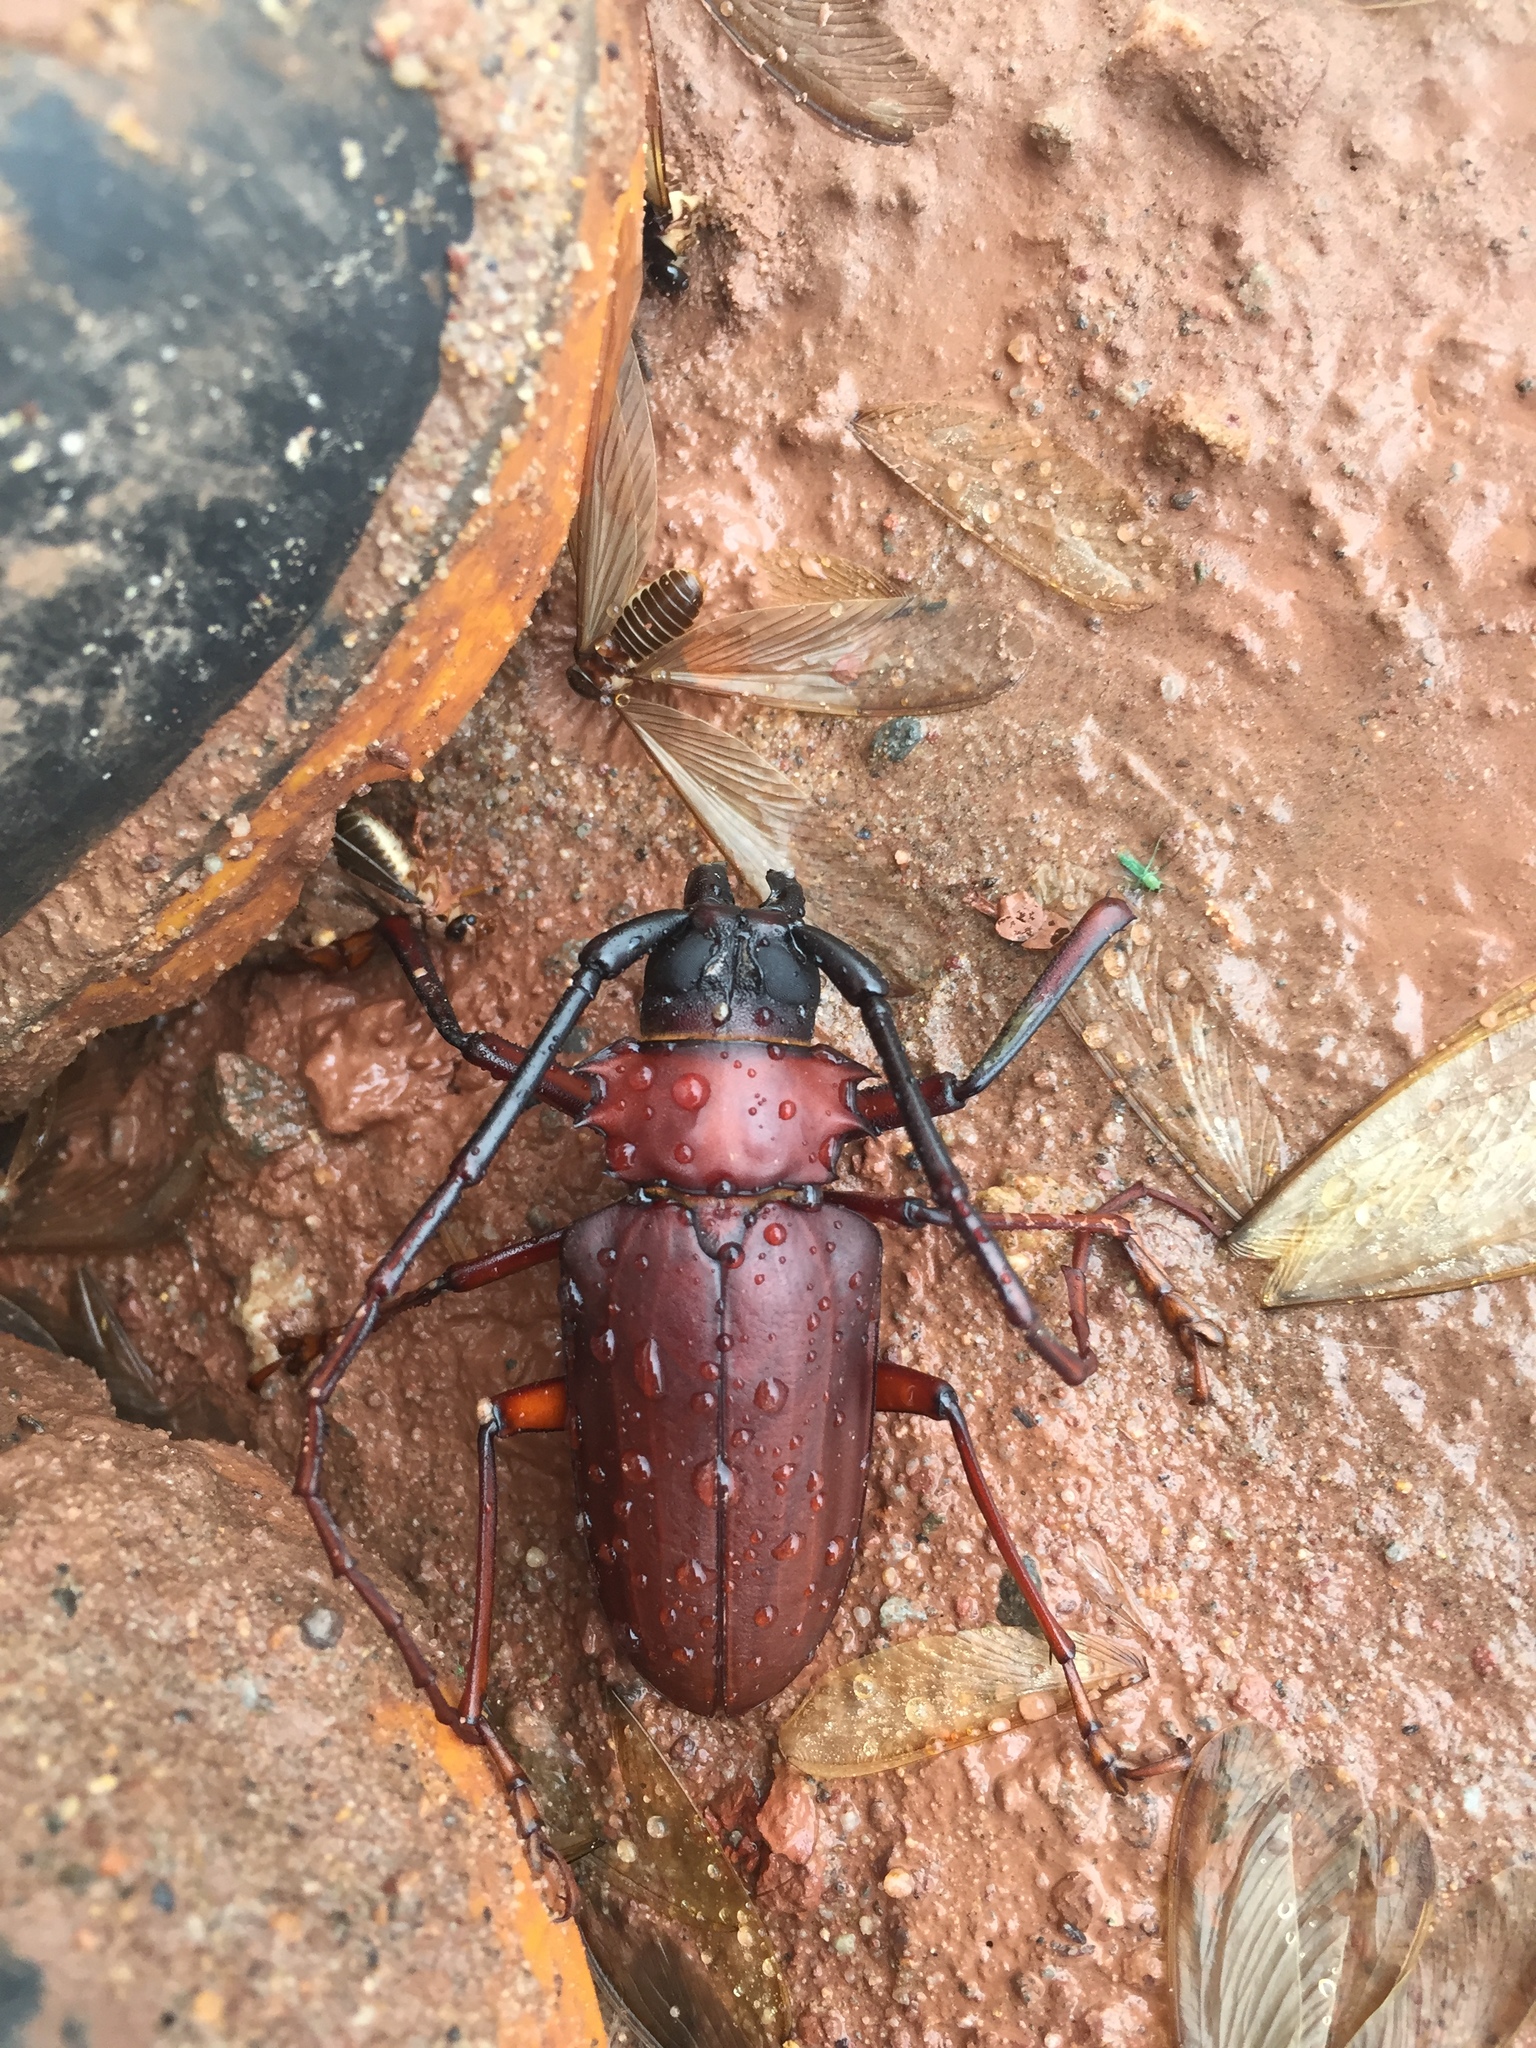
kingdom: Animalia
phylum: Arthropoda
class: Insecta
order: Coleoptera
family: Cerambycidae
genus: Dorysthenes
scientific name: Dorysthenes granulosus
